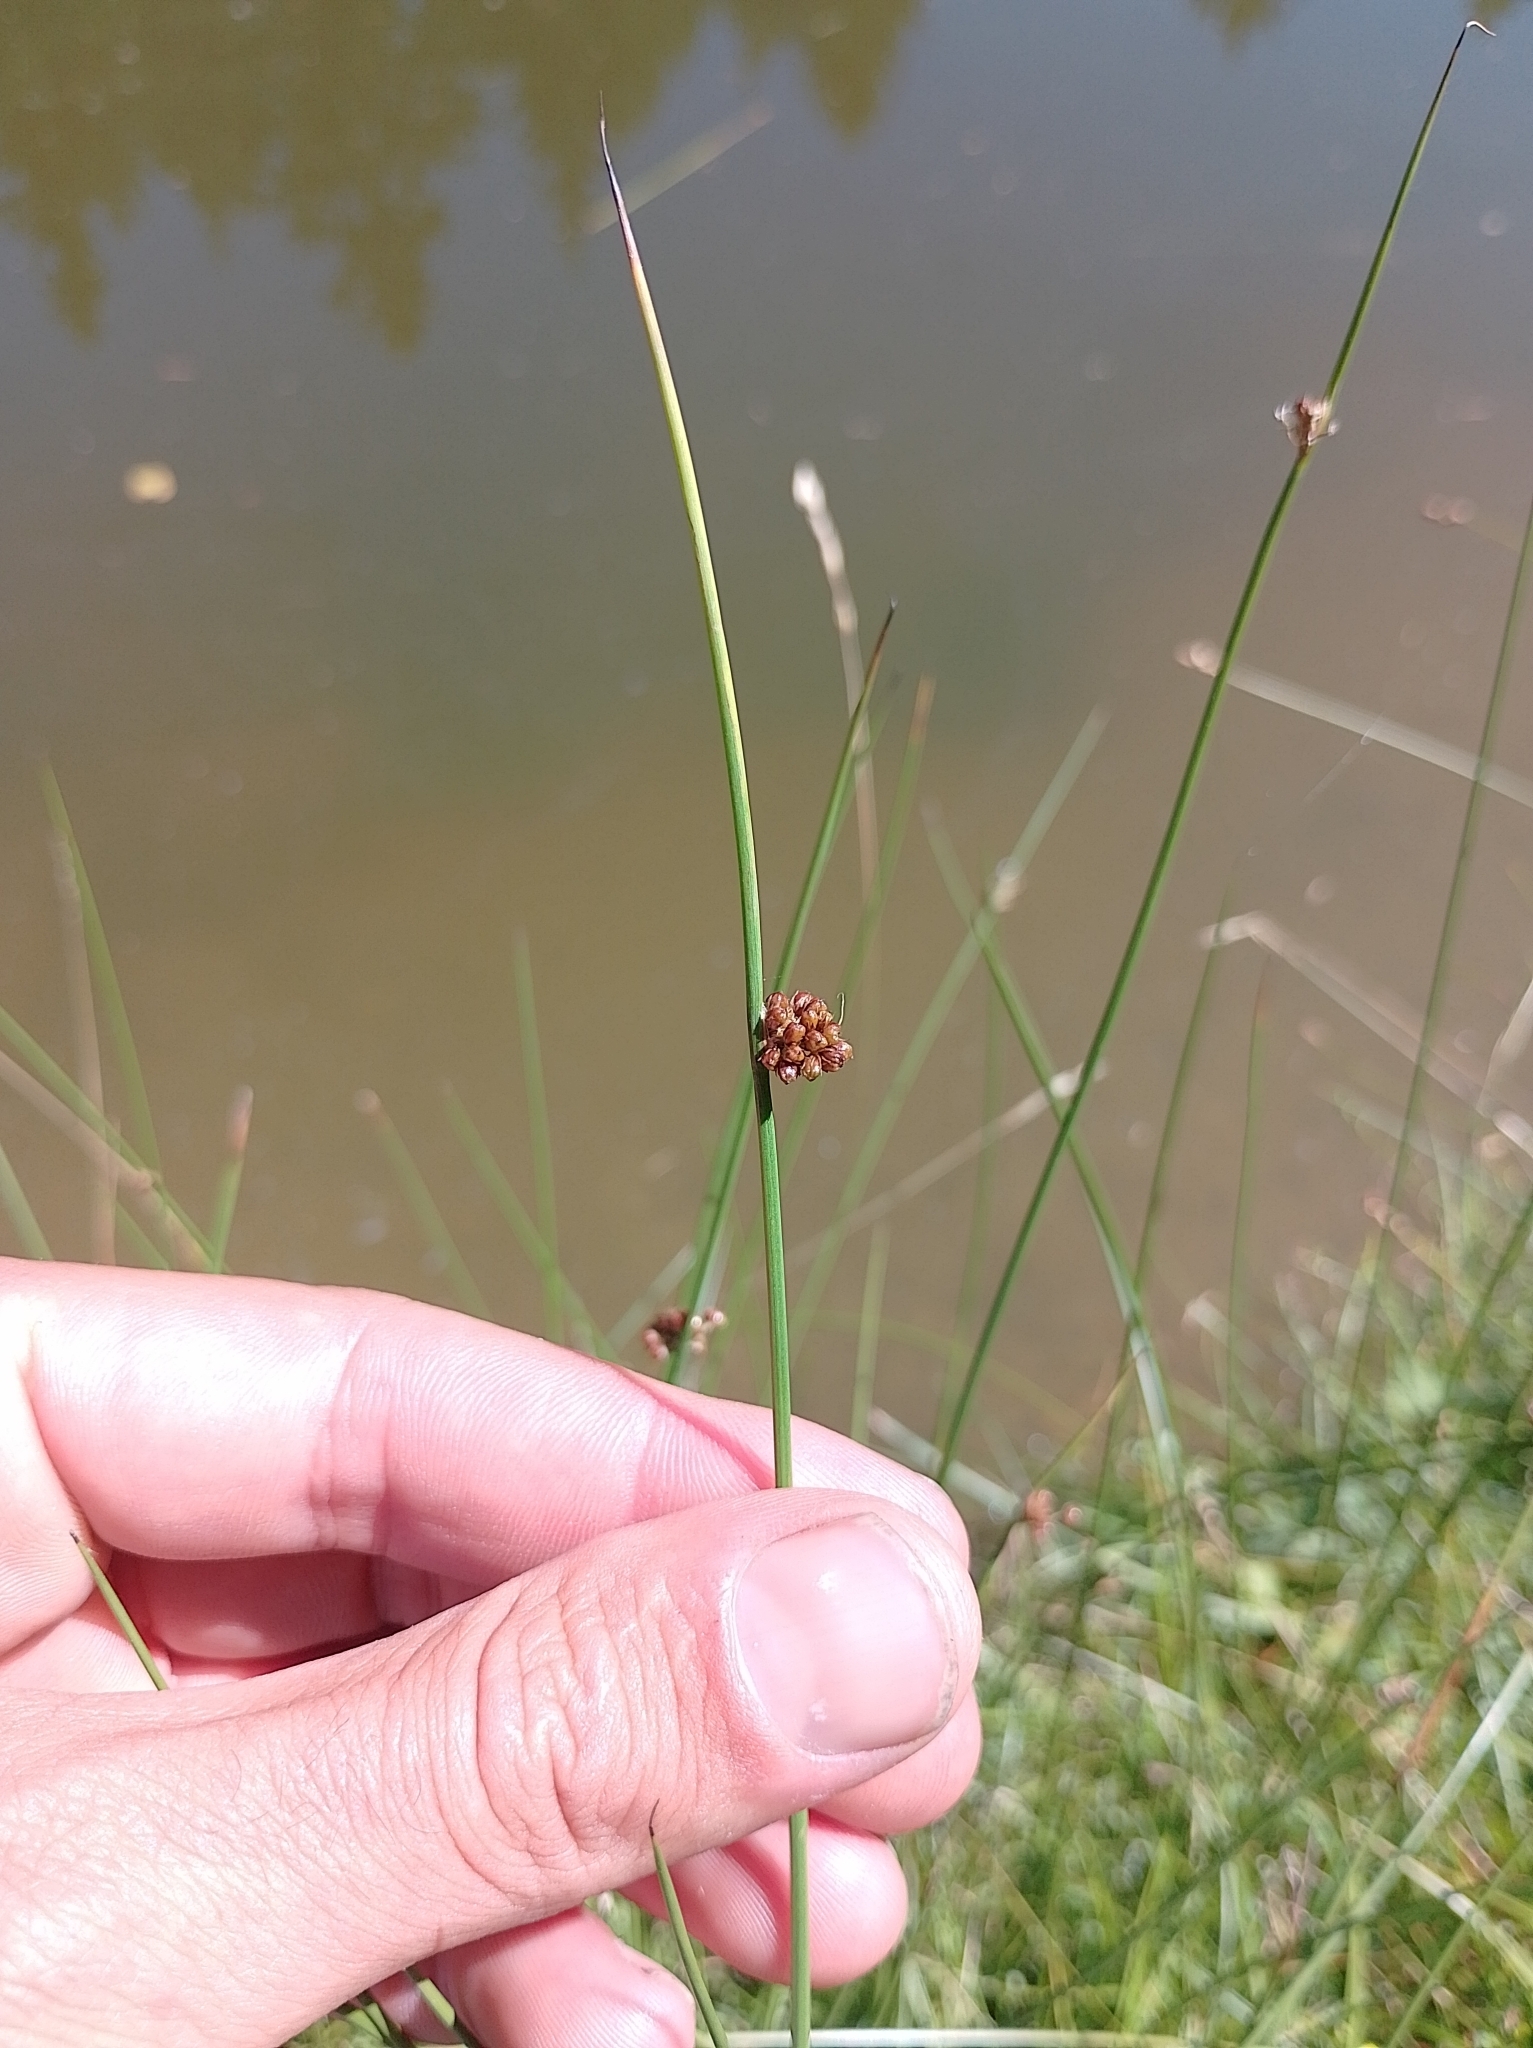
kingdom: Plantae
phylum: Tracheophyta
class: Liliopsida
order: Poales
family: Juncaceae
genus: Juncus
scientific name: Juncus conglomeratus
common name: Compact rush
